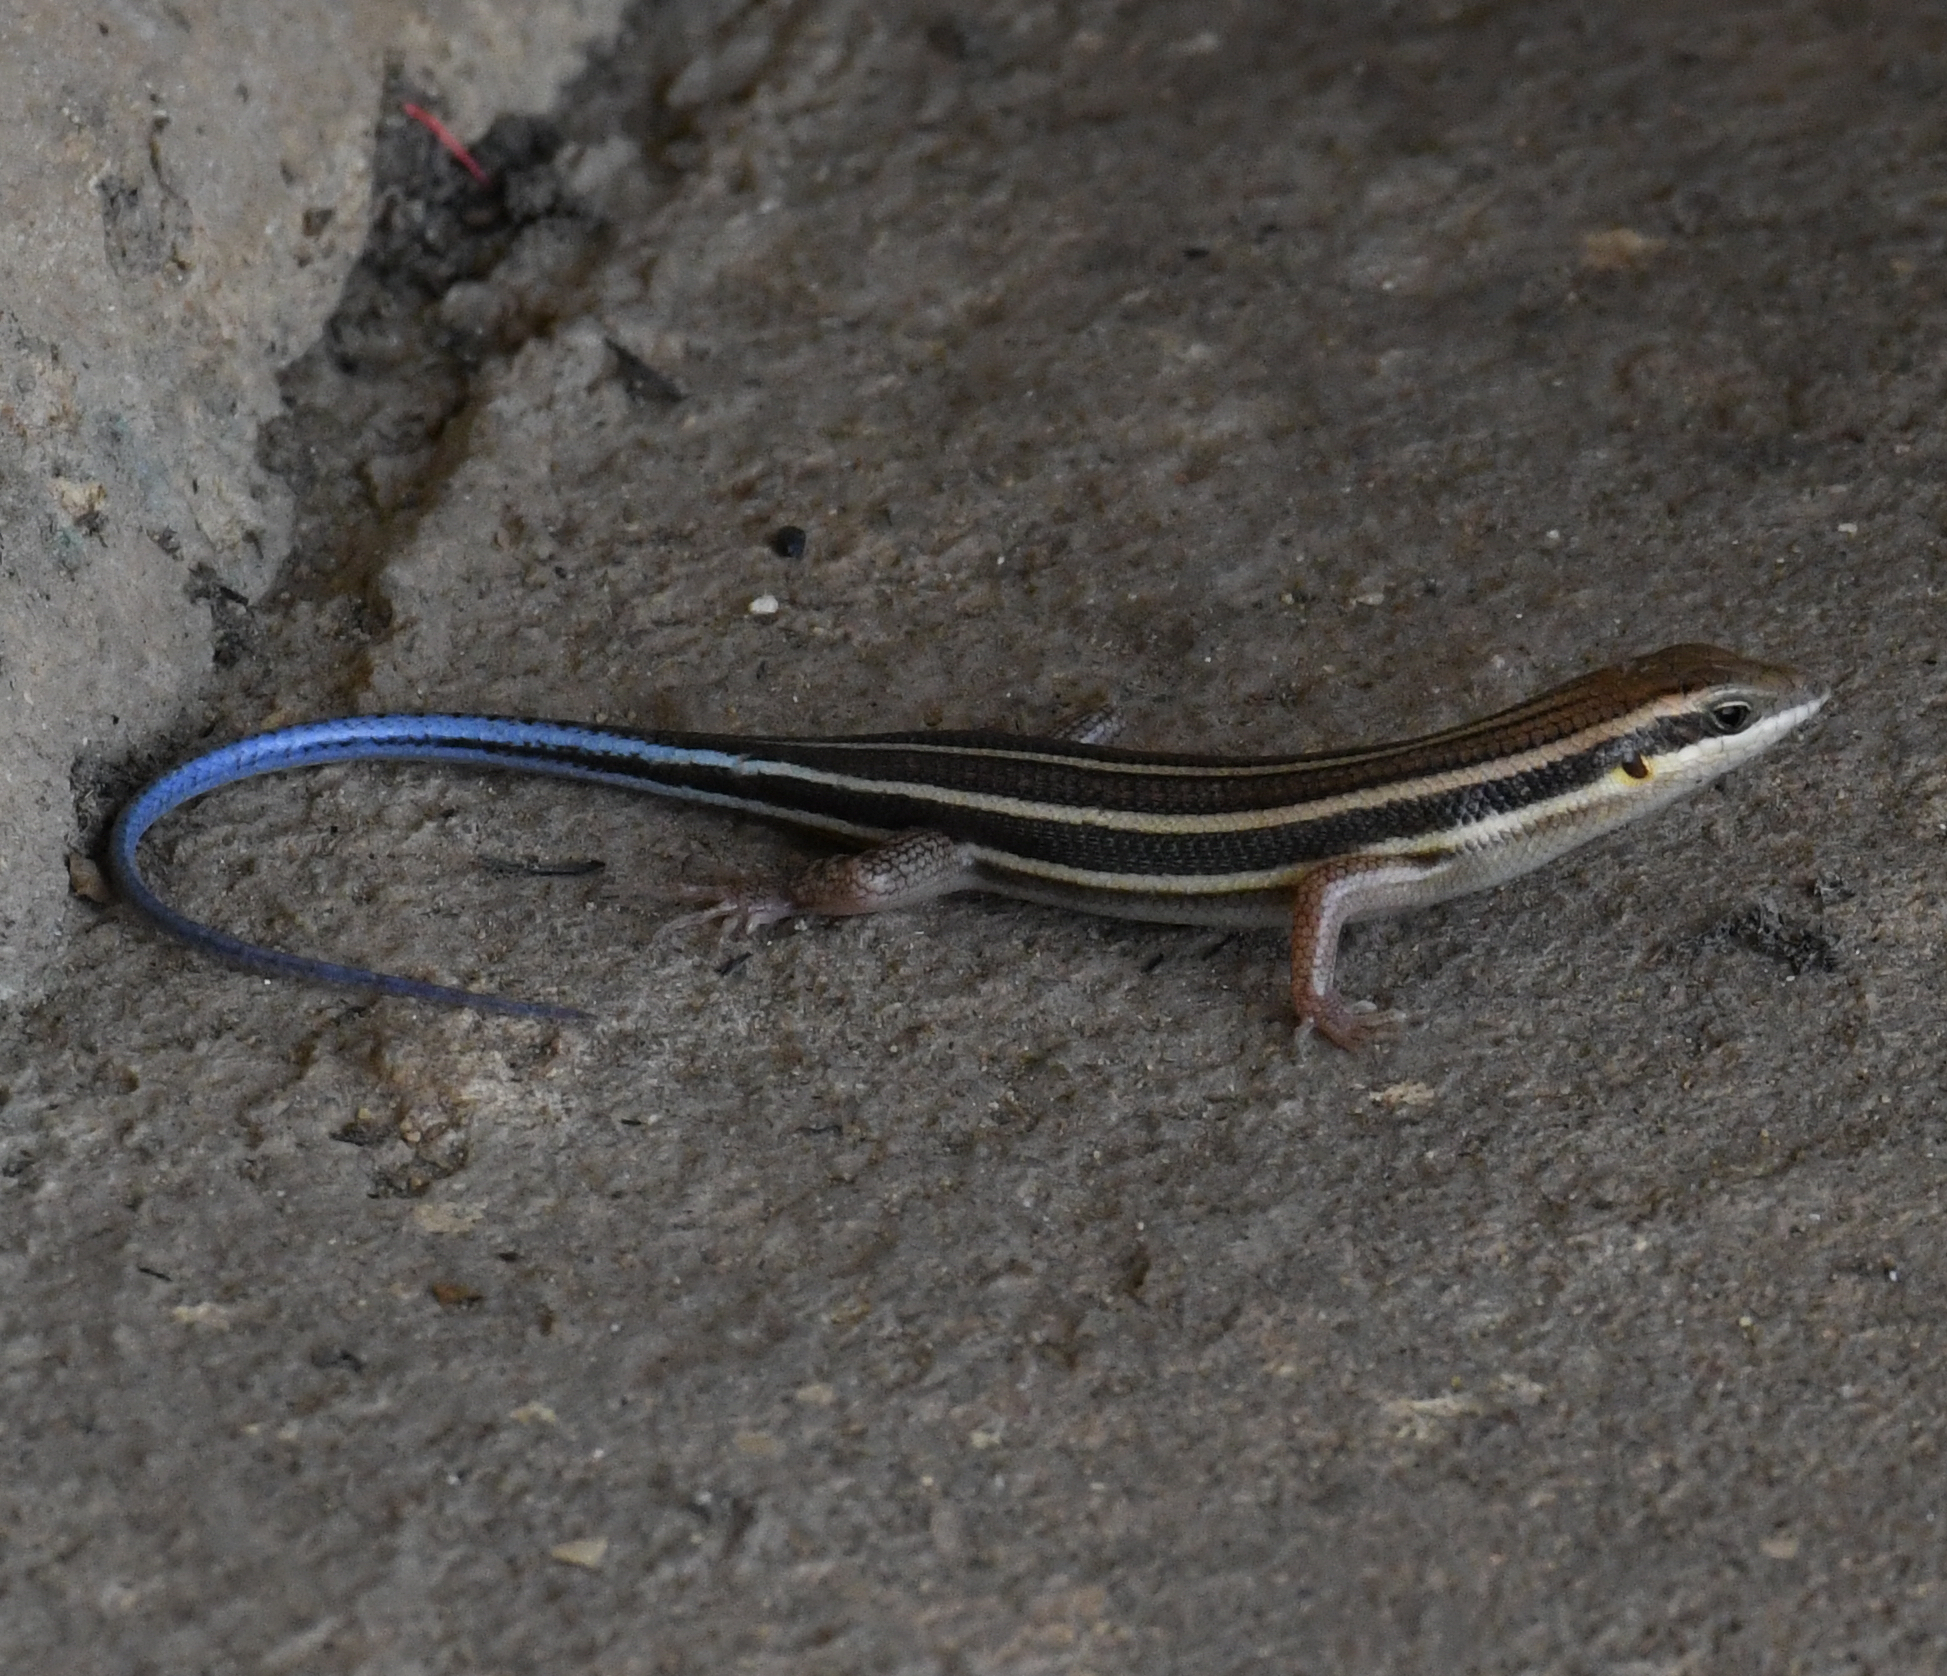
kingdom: Animalia
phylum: Chordata
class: Squamata
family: Scincidae
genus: Trachylepis
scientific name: Trachylepis quinquetaeniata
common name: African five-lined skink
